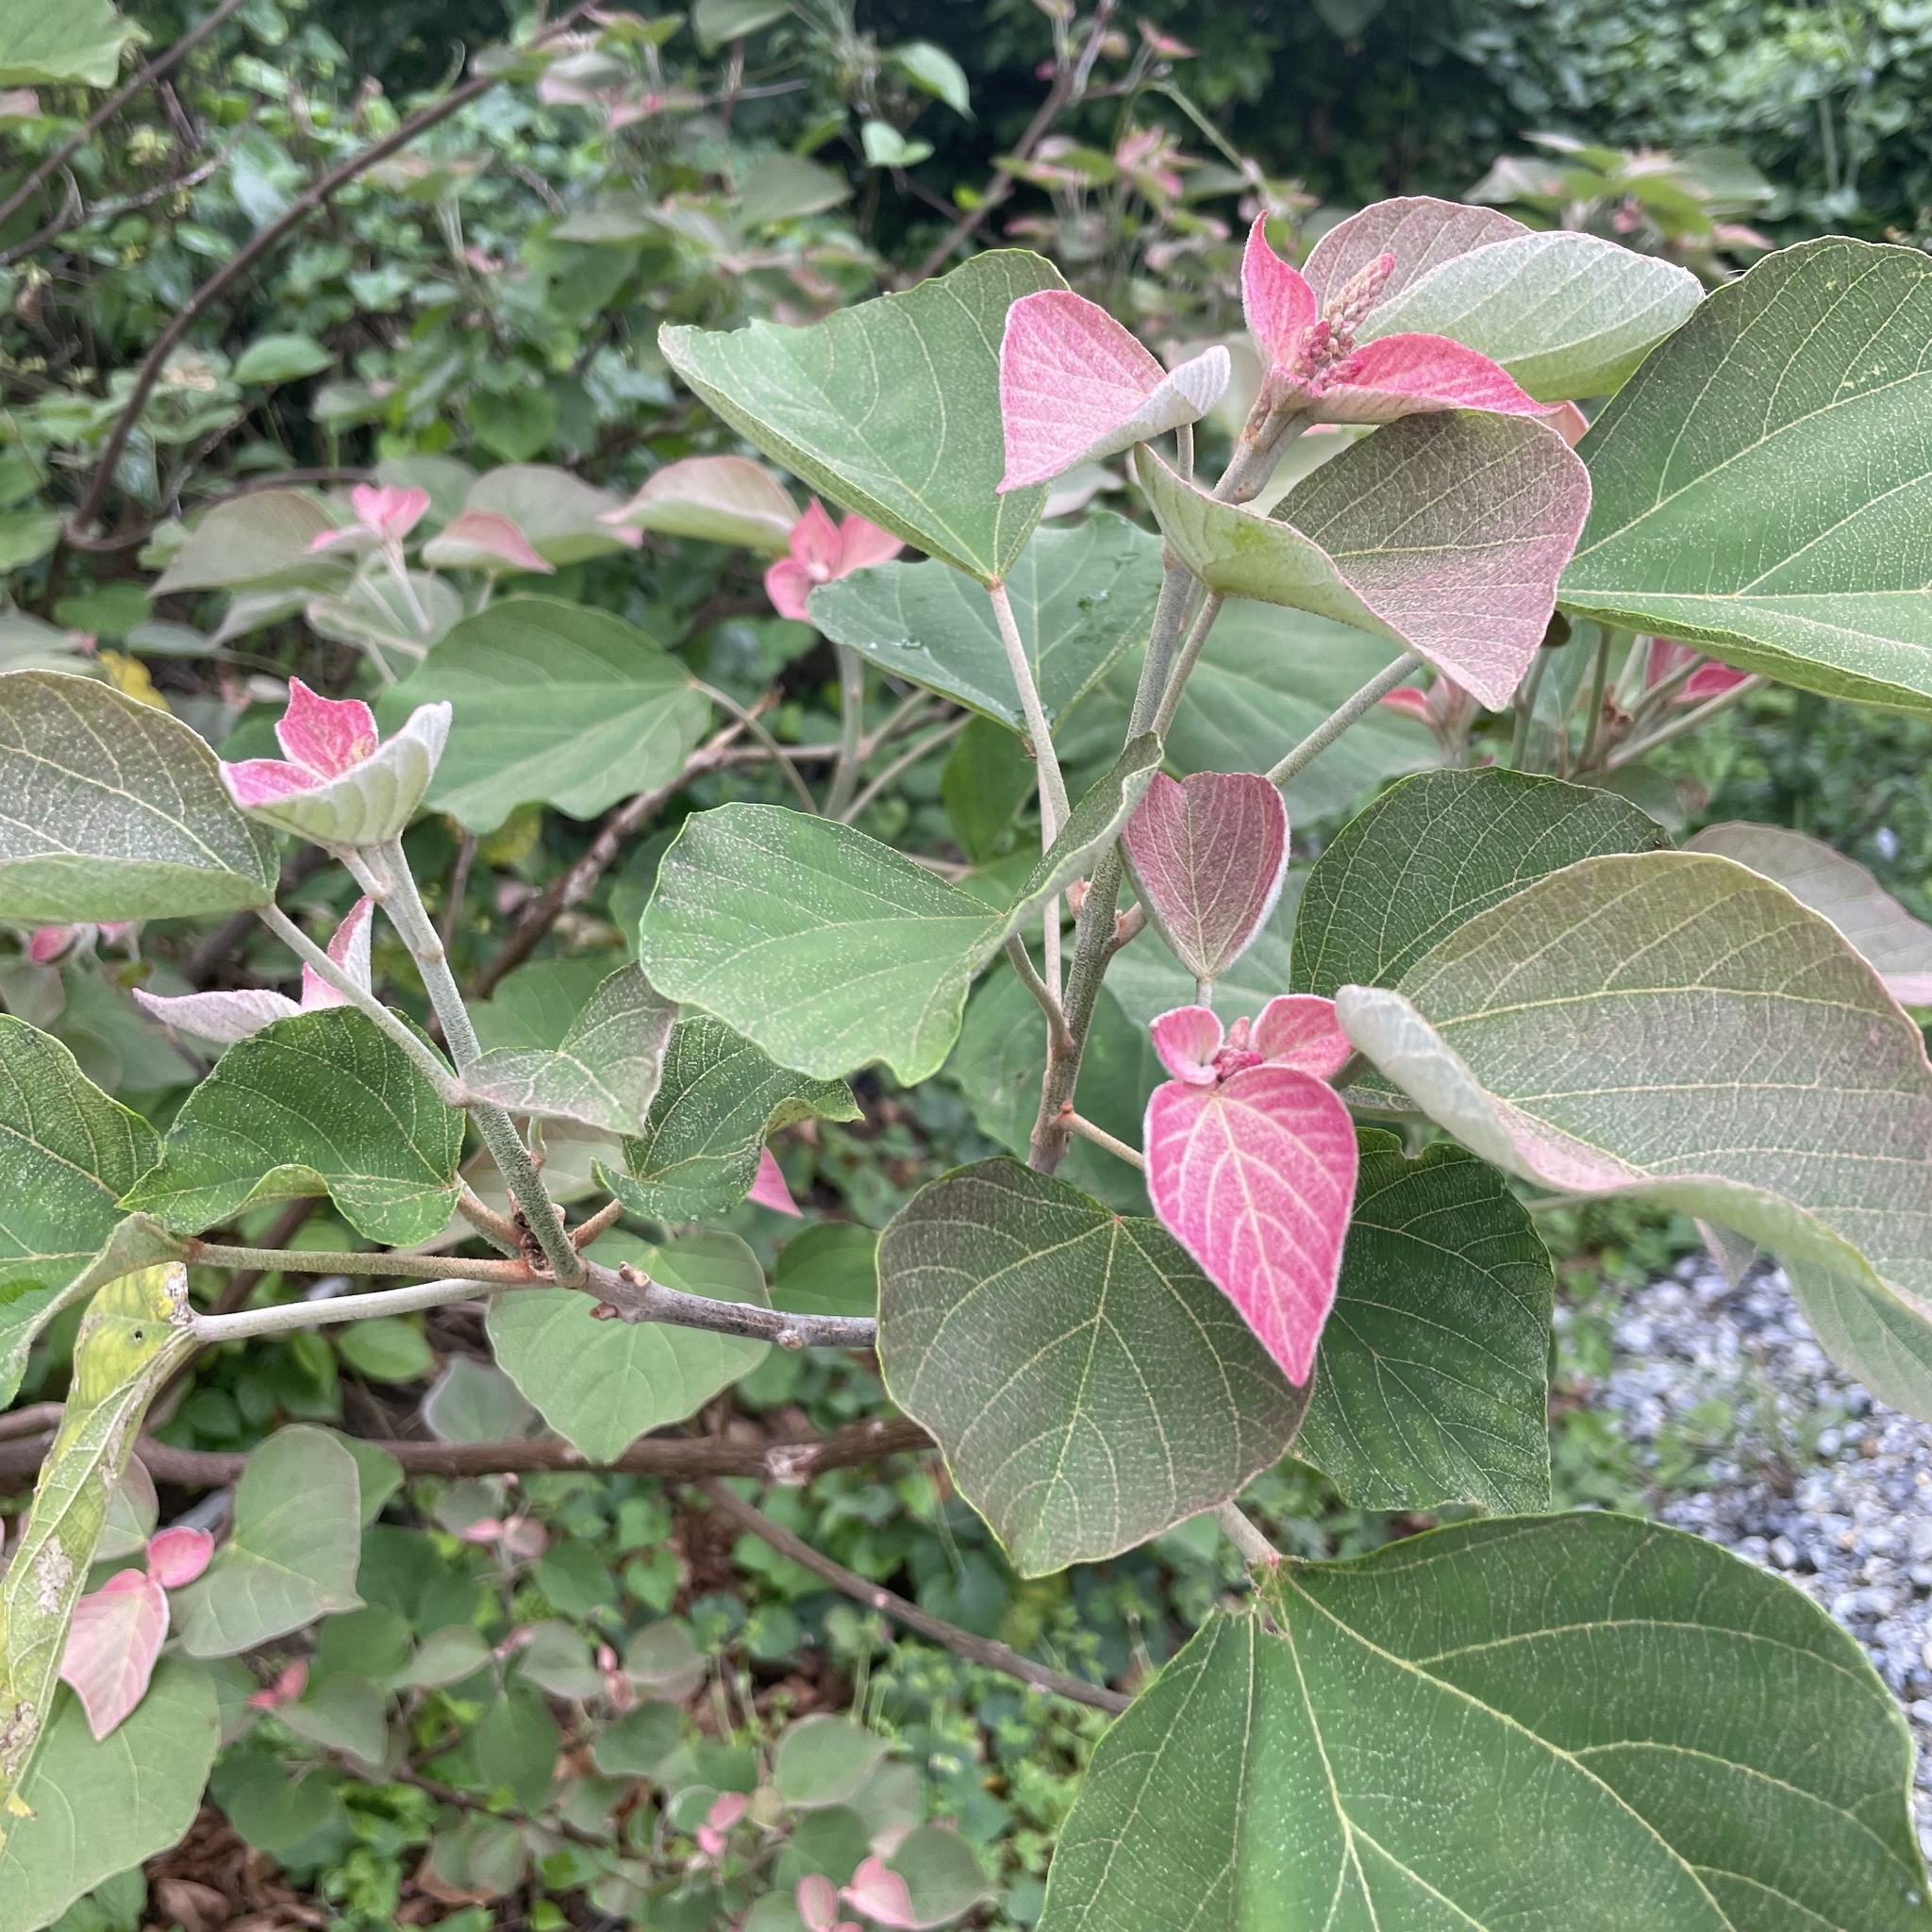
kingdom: Plantae
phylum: Tracheophyta
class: Magnoliopsida
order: Malpighiales
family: Euphorbiaceae
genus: Mallotus
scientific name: Mallotus japonicus
